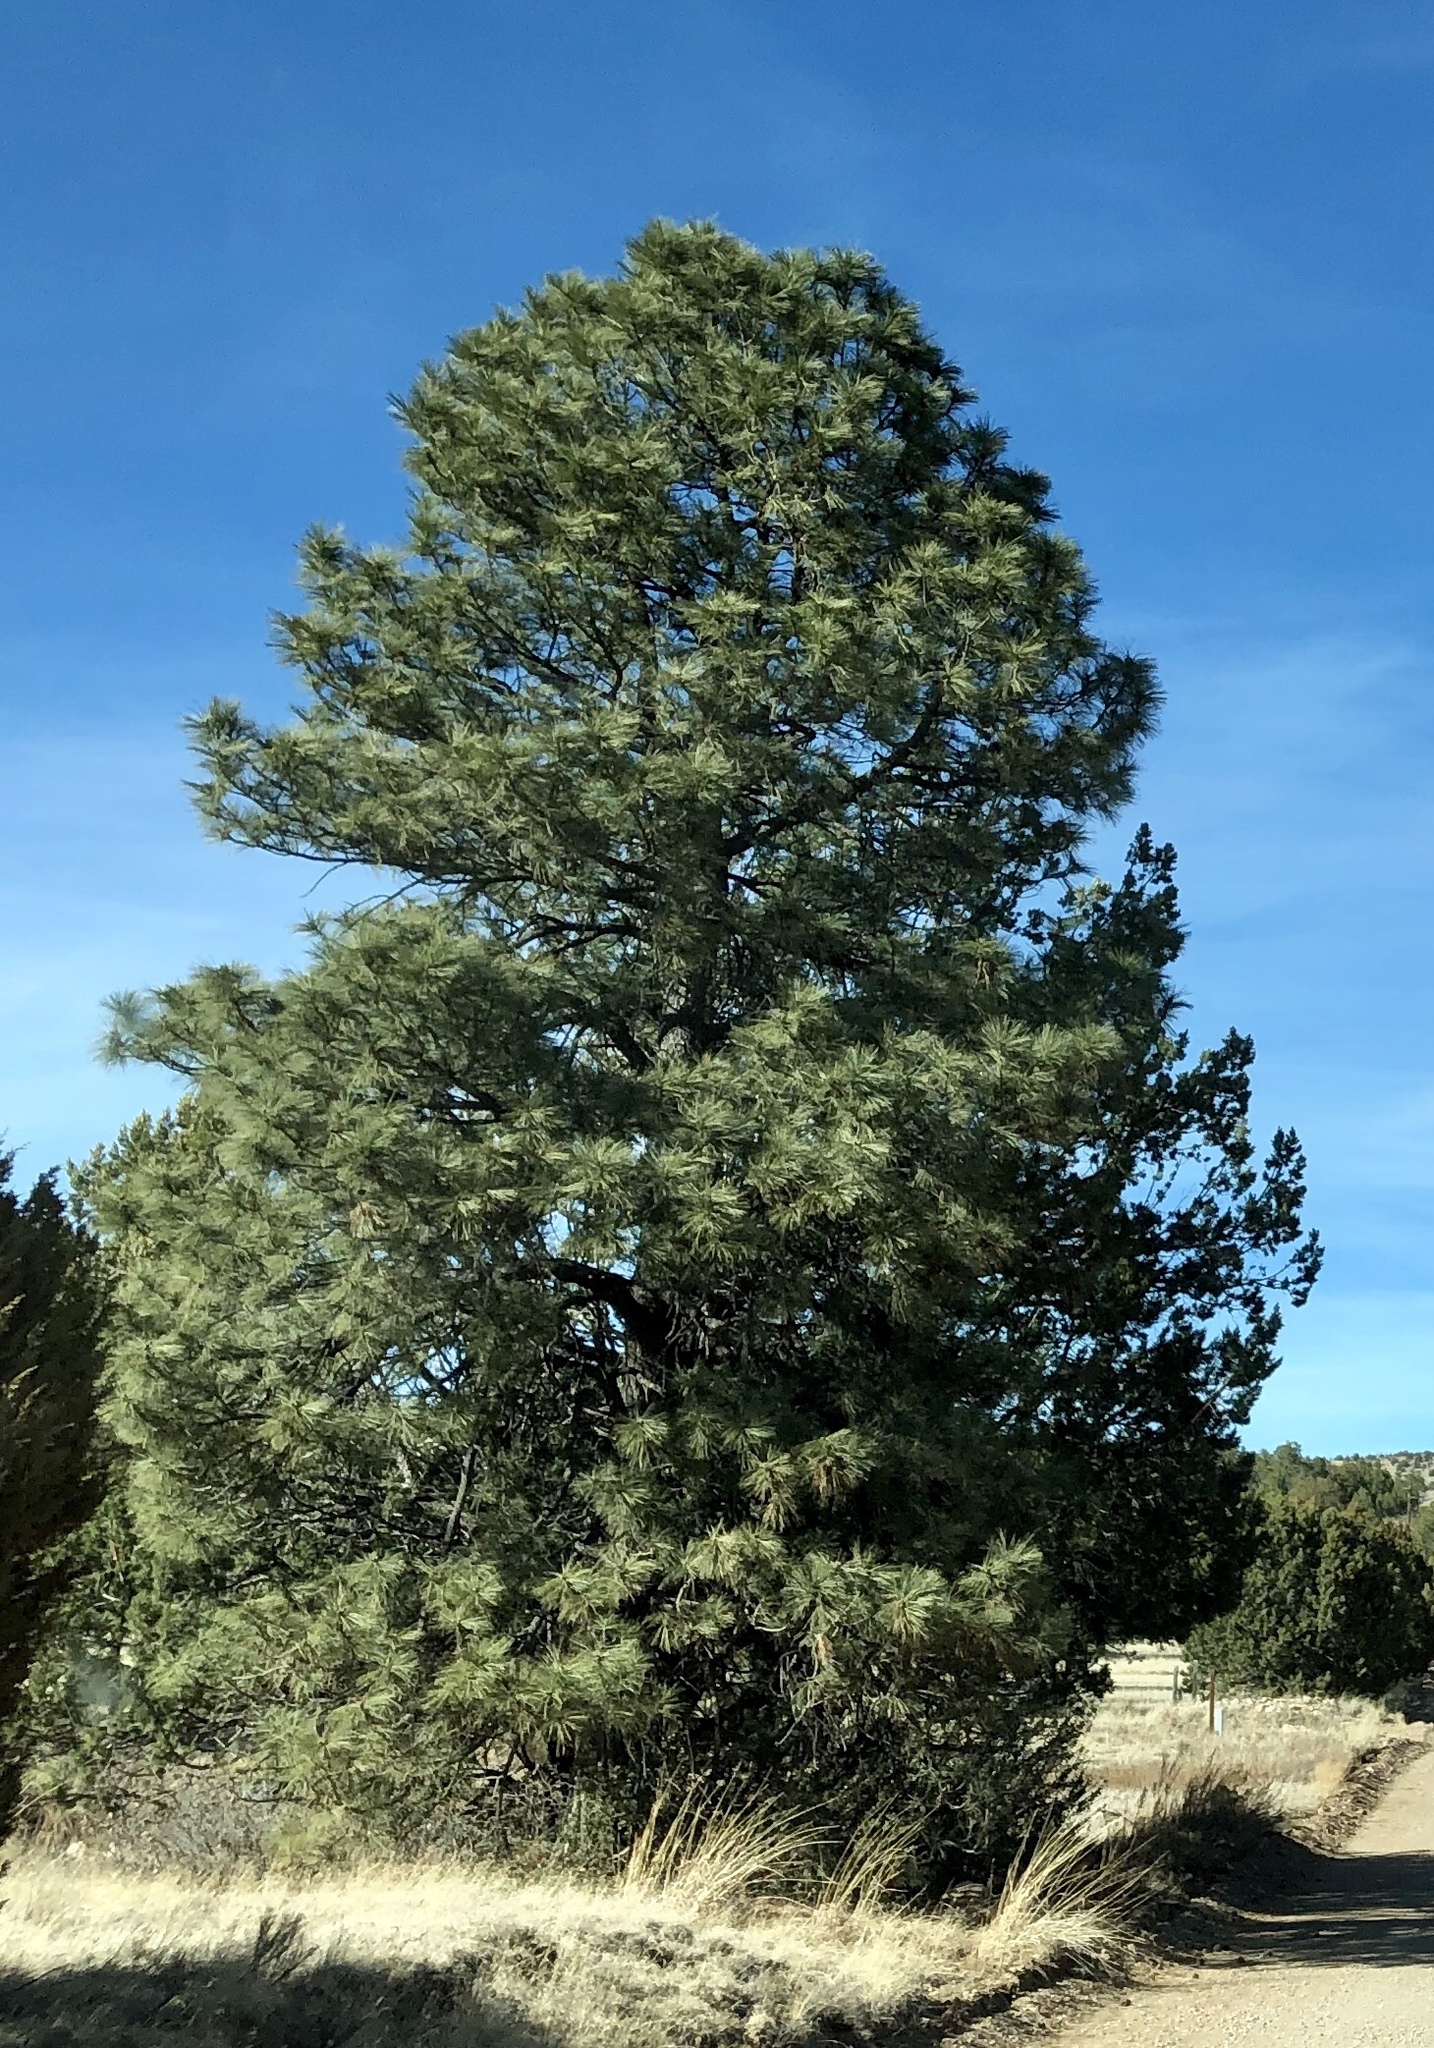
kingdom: Plantae
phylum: Tracheophyta
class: Pinopsida
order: Pinales
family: Pinaceae
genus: Pinus
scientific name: Pinus ponderosa
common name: Western yellow-pine
